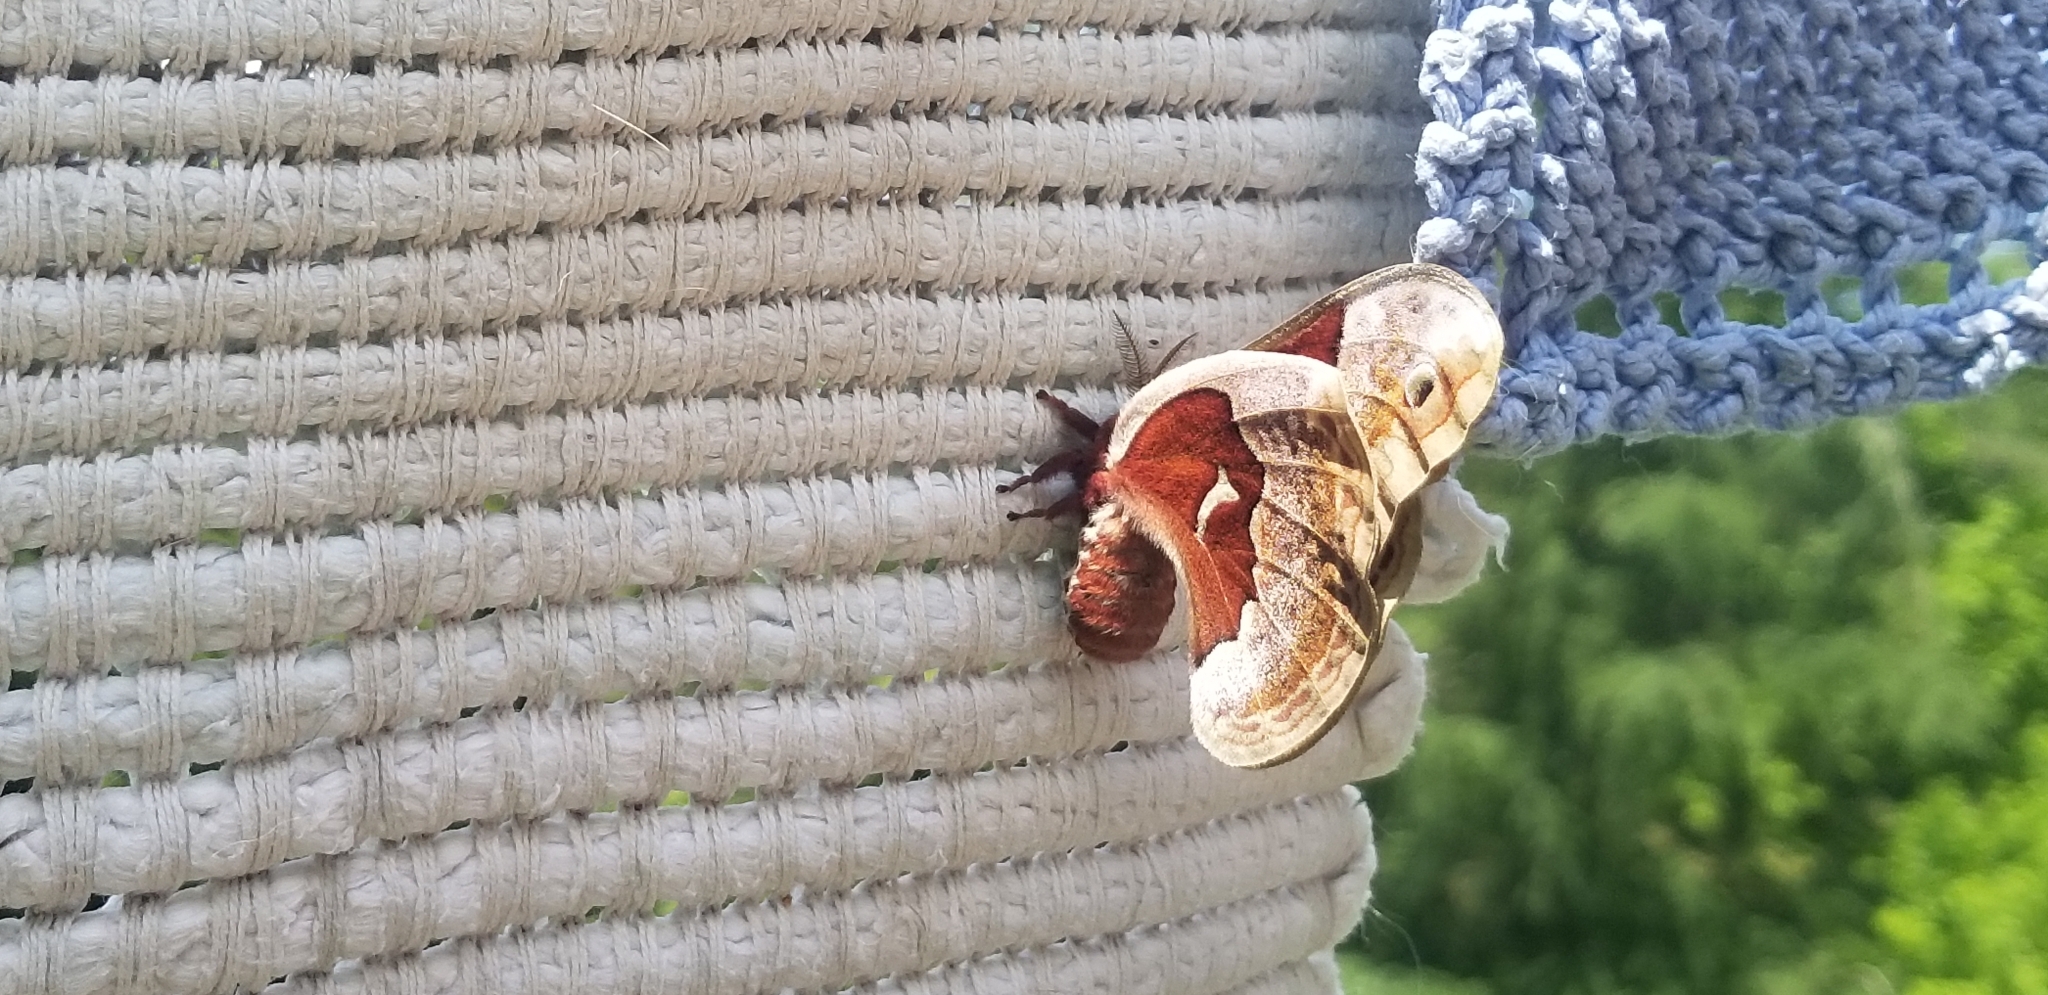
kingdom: Animalia
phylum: Arthropoda
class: Insecta
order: Lepidoptera
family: Saturniidae
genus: Callosamia
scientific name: Callosamia promethea
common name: Promethea silkmoth
